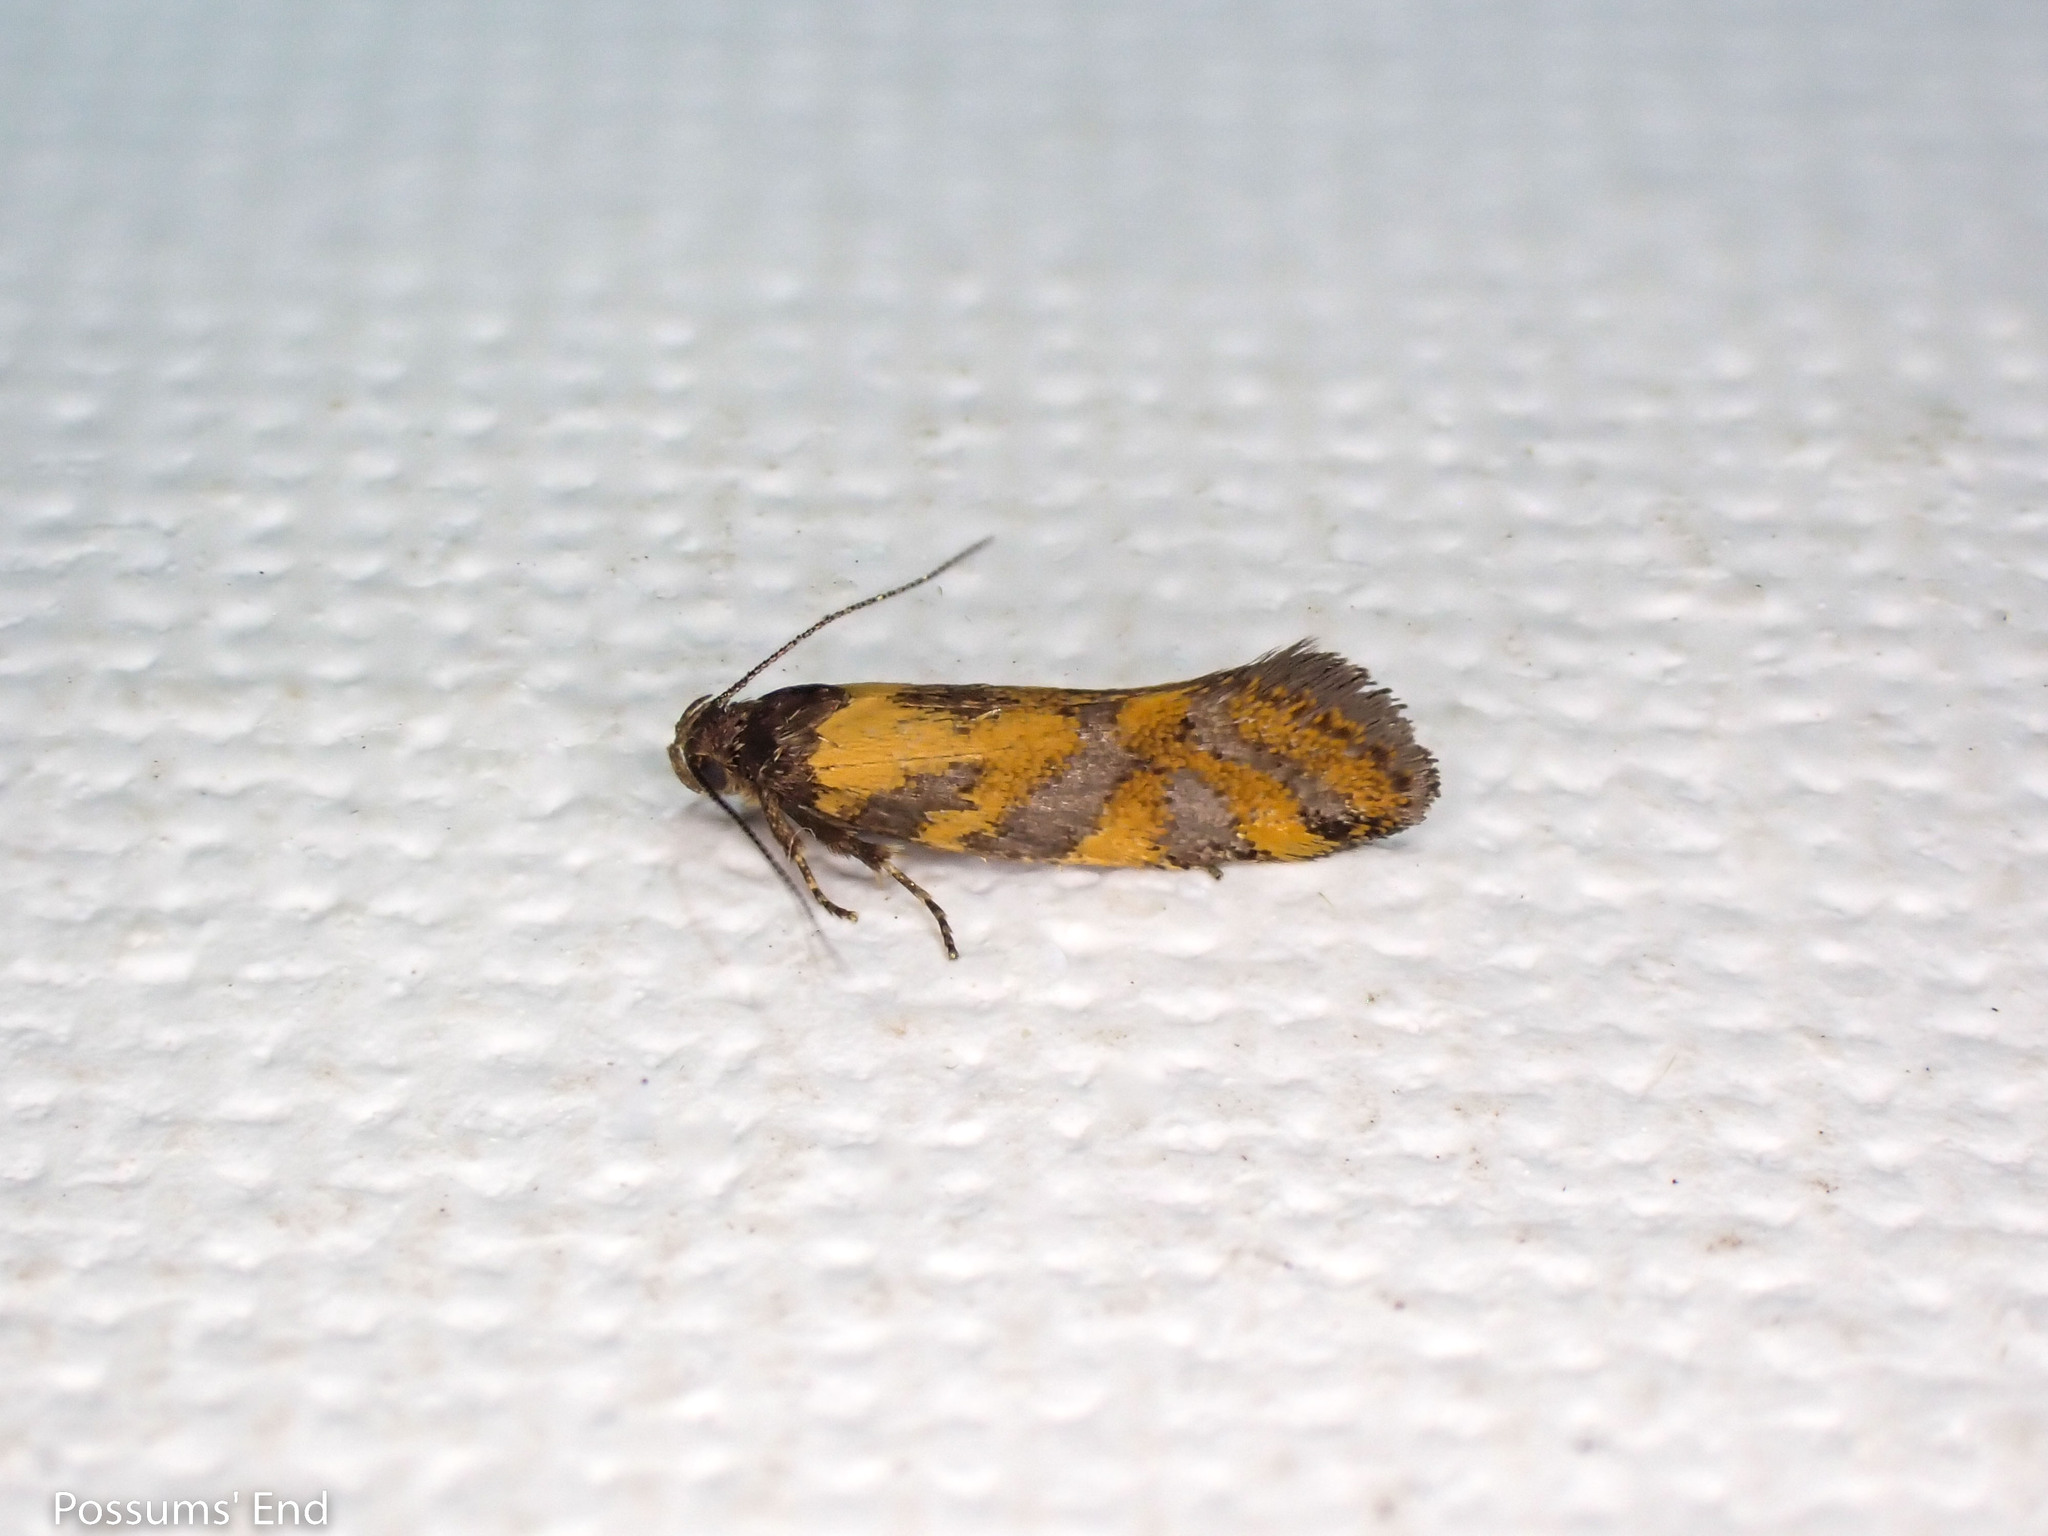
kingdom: Animalia
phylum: Arthropoda
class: Insecta
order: Lepidoptera
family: Oecophoridae
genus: Tingena
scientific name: Tingena compsogramma
